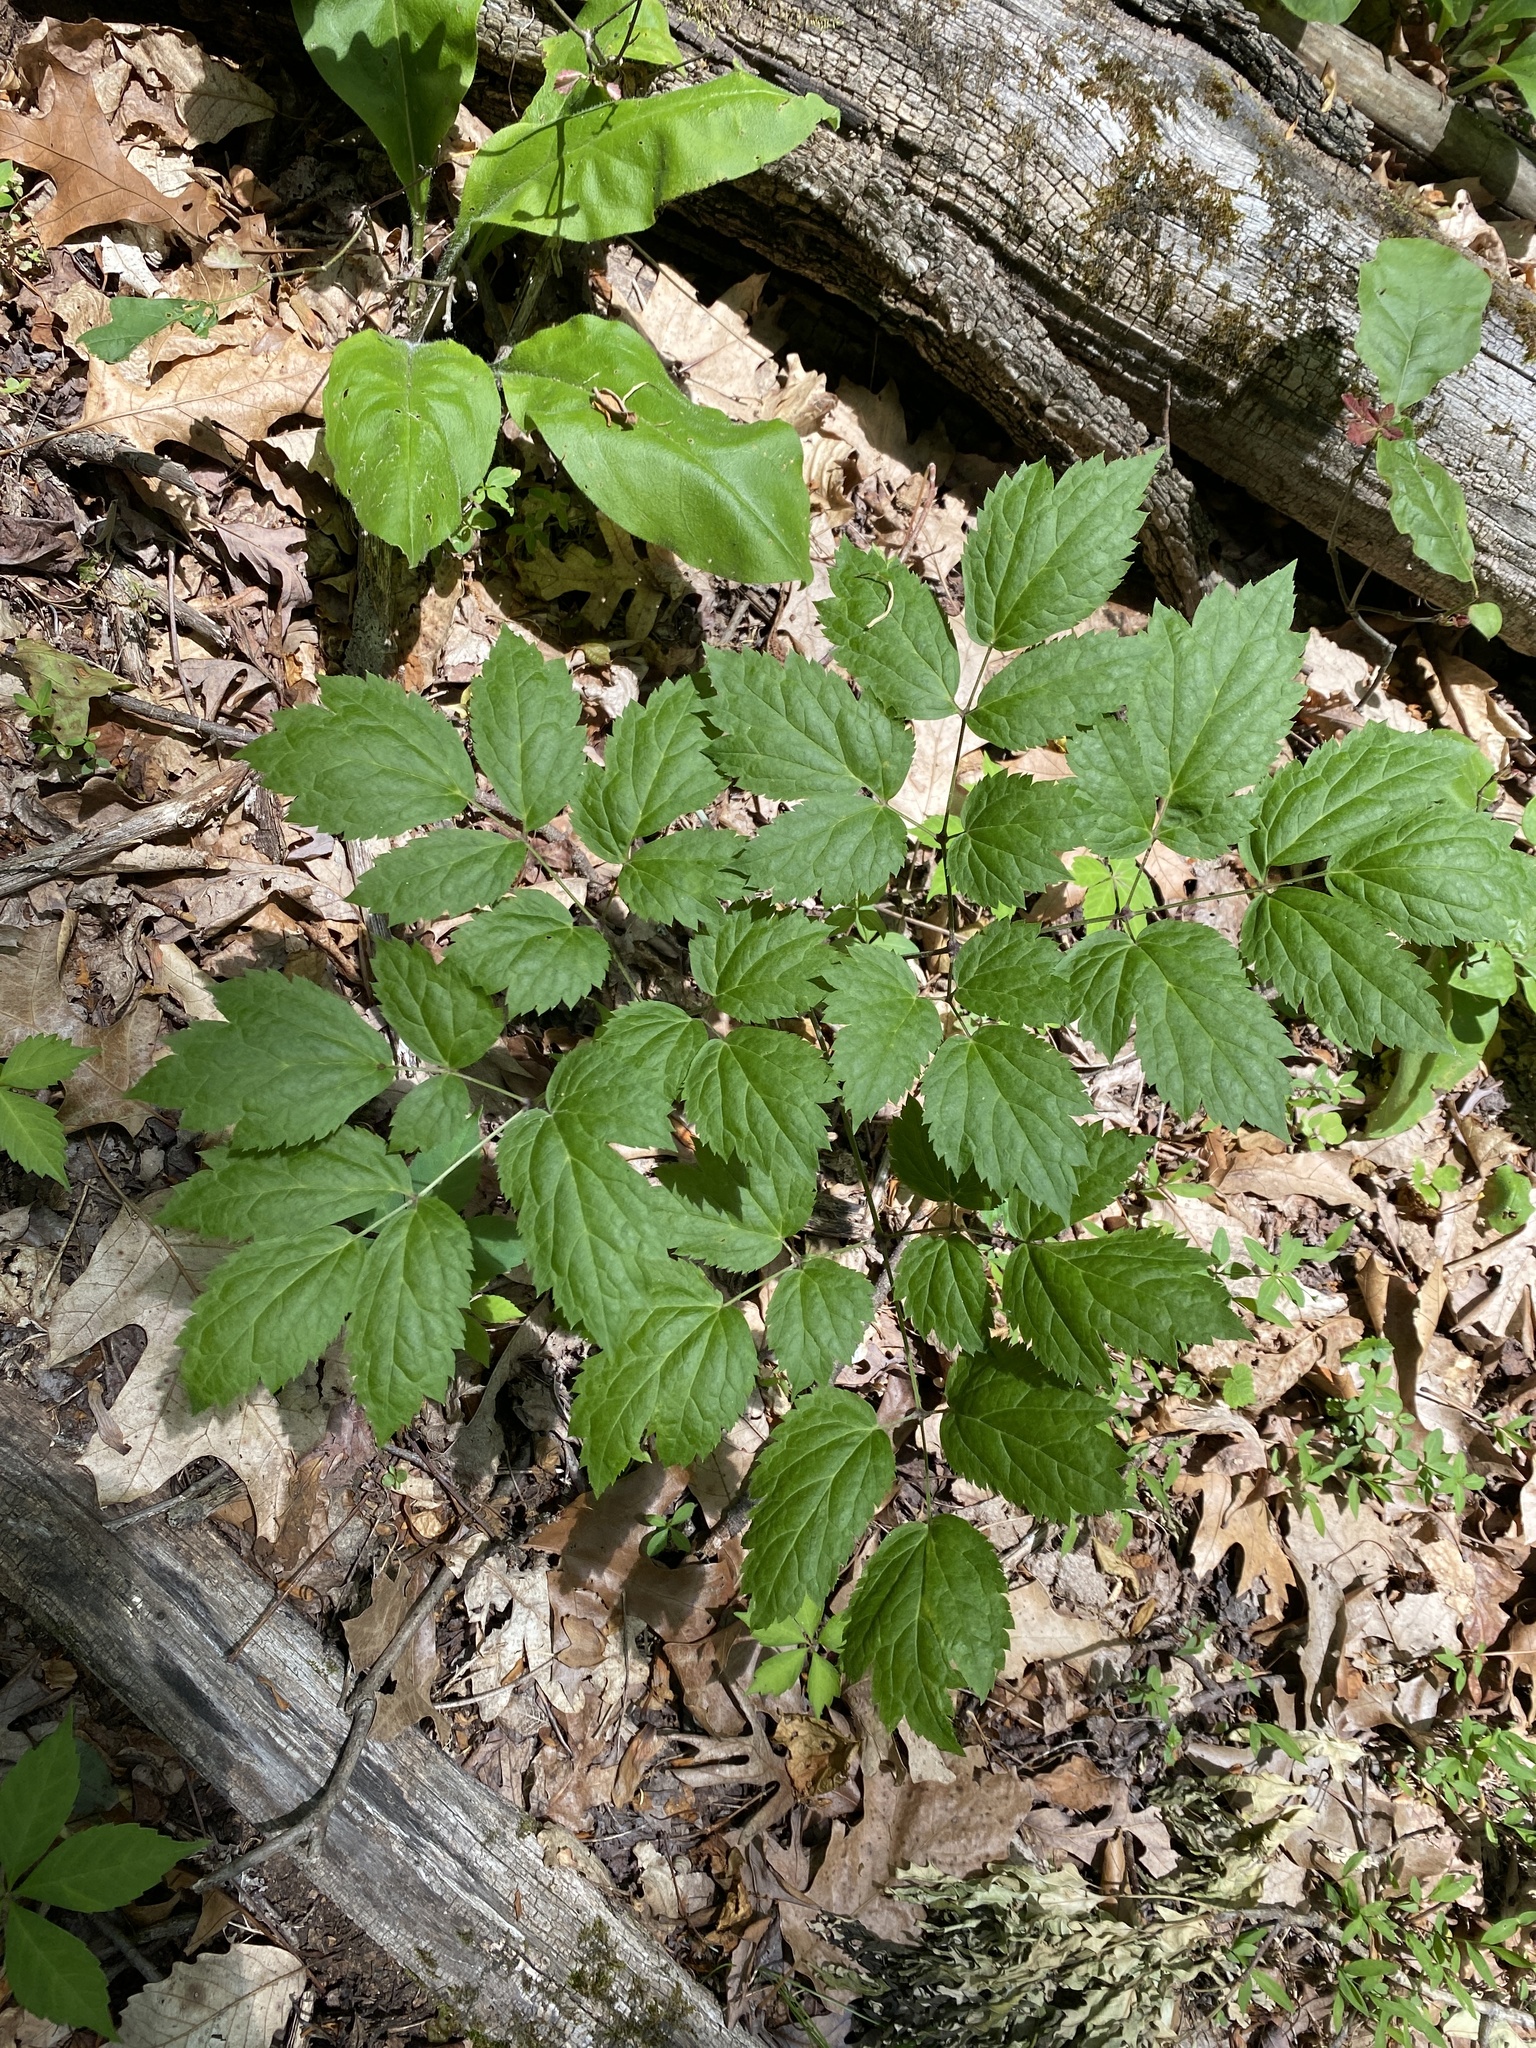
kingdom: Plantae
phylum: Tracheophyta
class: Magnoliopsida
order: Ranunculales
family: Ranunculaceae
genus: Actaea
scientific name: Actaea racemosa
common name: Black cohosh
